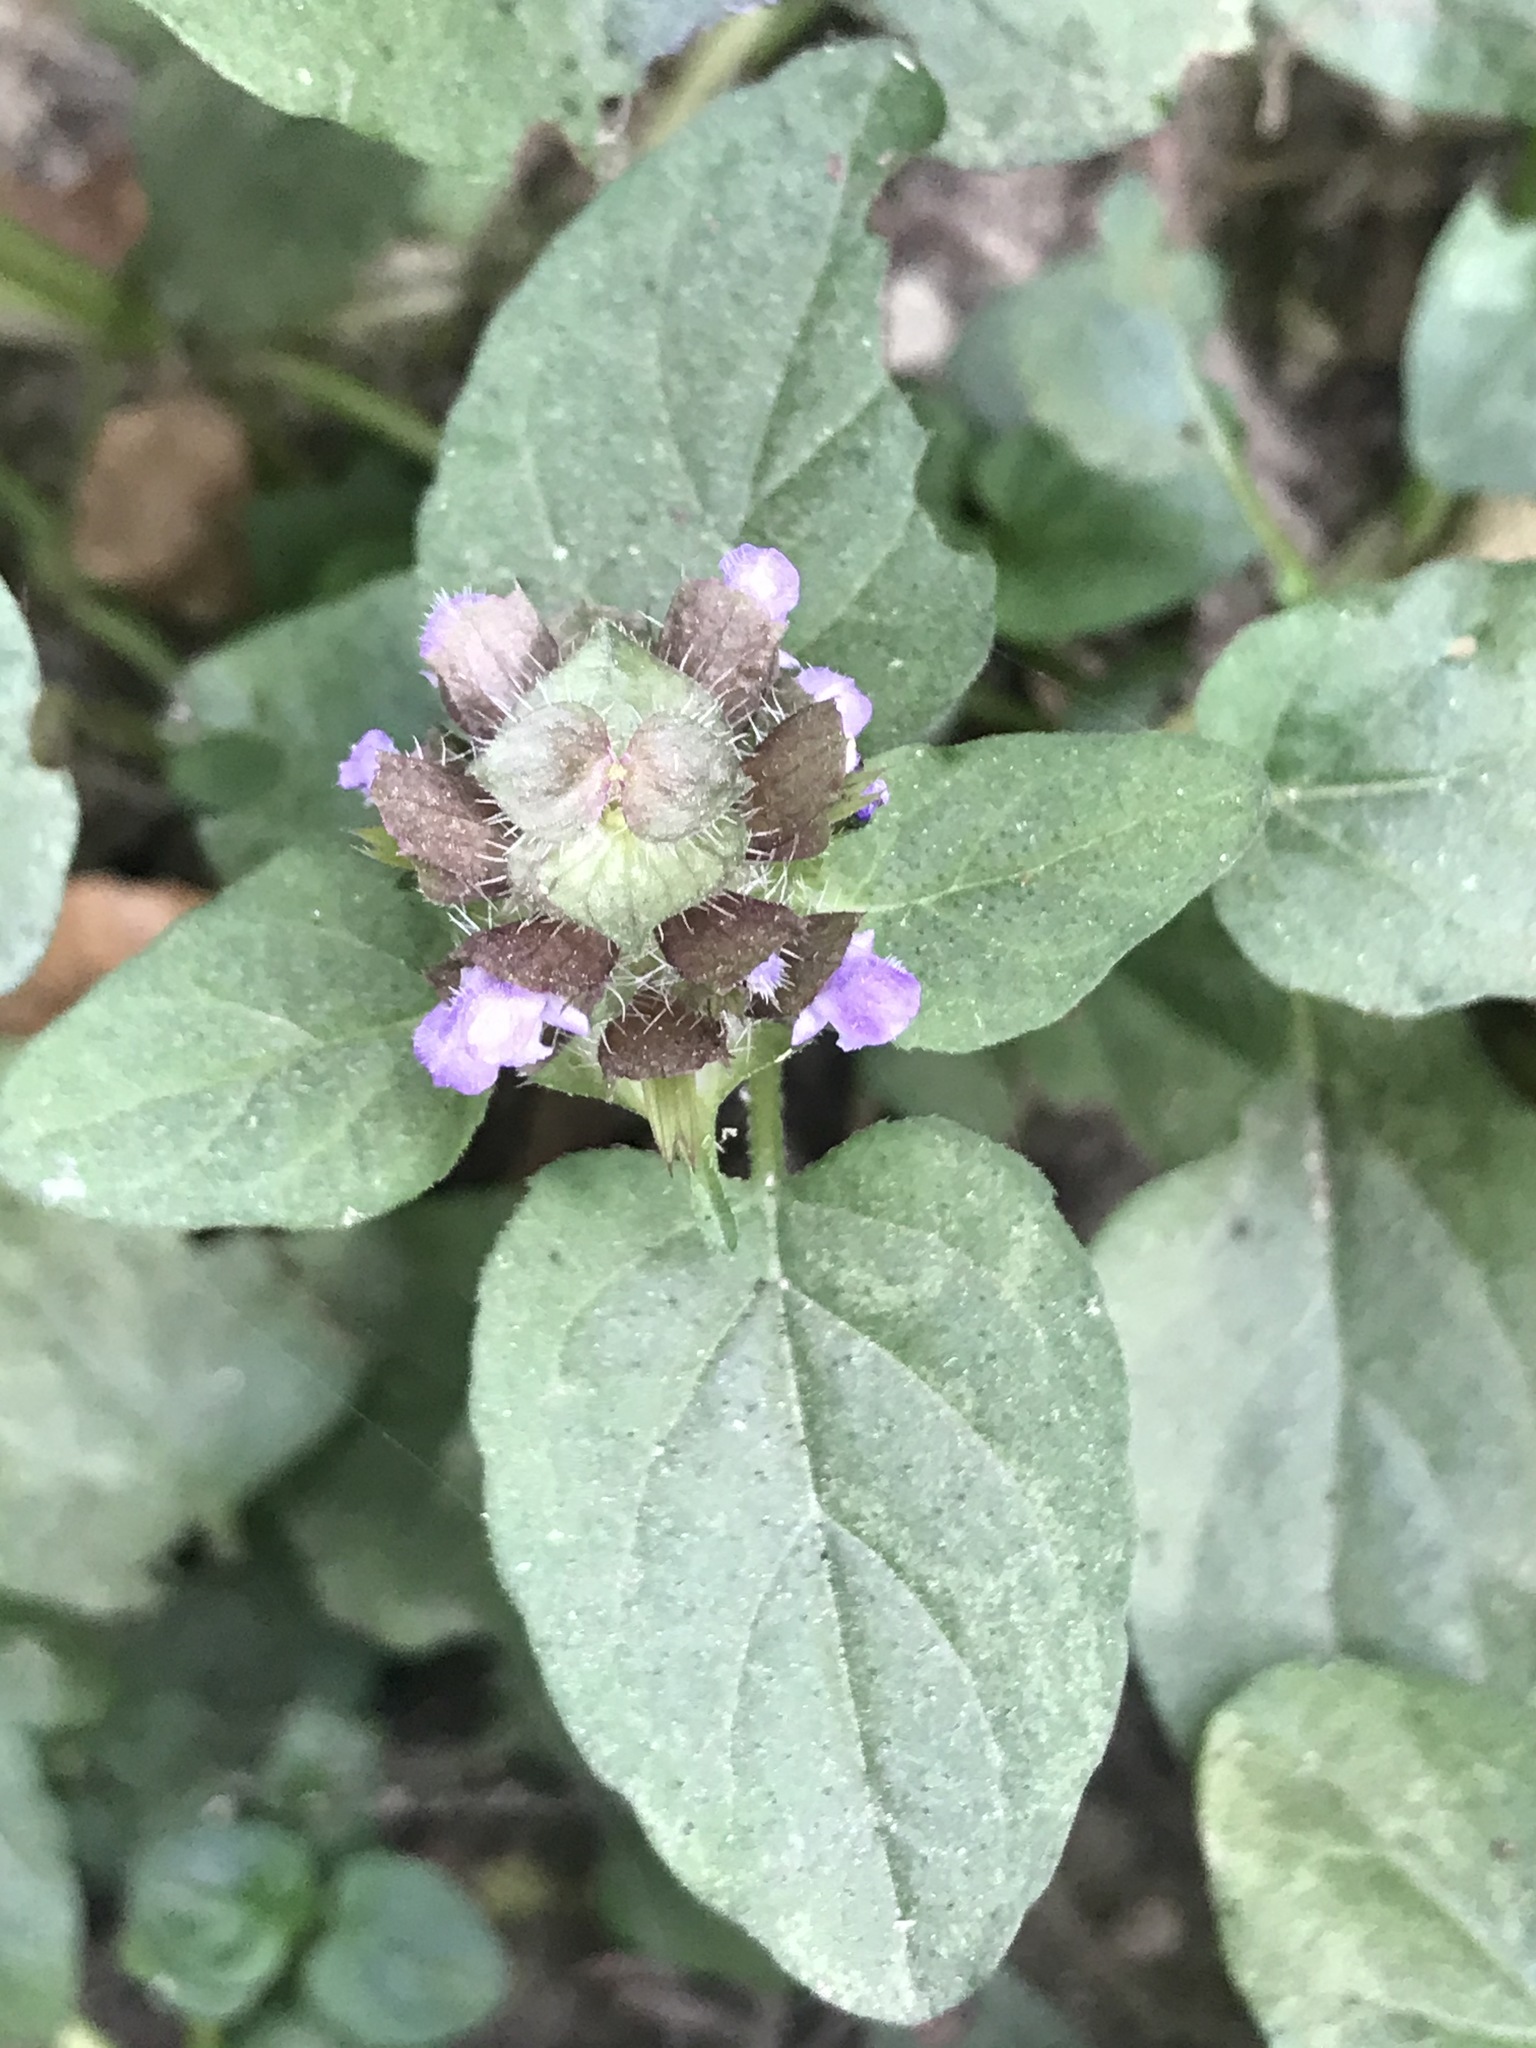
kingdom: Plantae
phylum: Tracheophyta
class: Magnoliopsida
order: Lamiales
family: Lamiaceae
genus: Prunella
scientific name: Prunella vulgaris
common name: Heal-all
